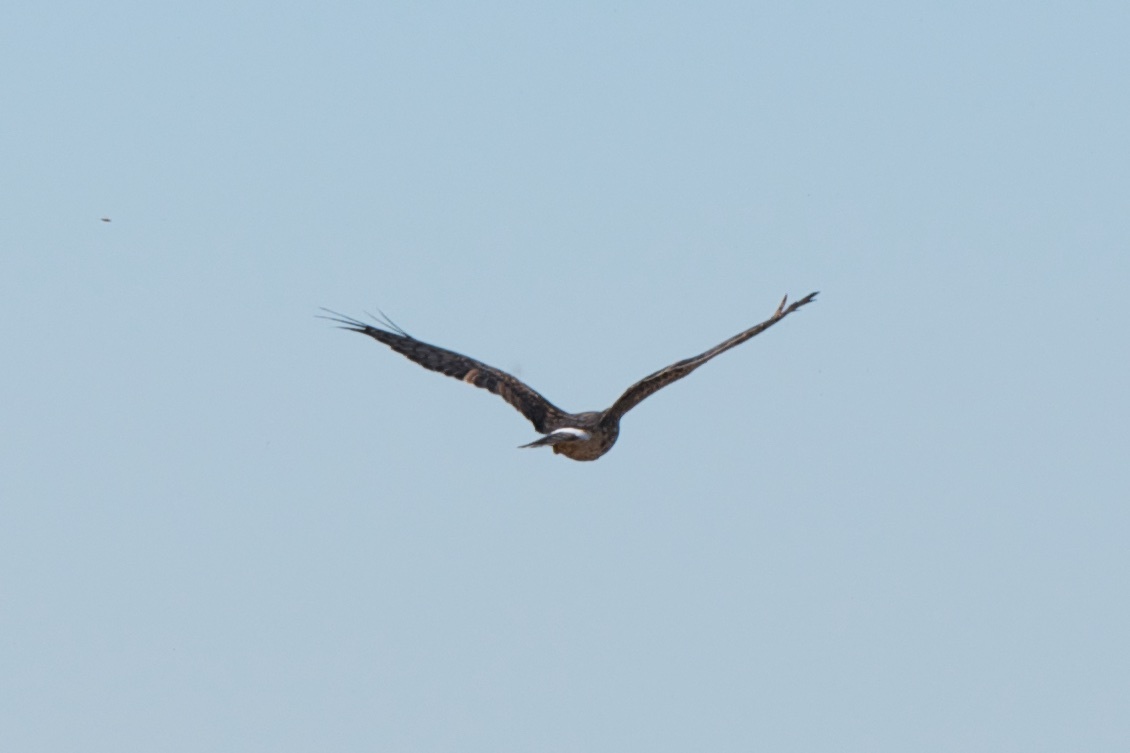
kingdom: Animalia
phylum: Chordata
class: Aves
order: Accipitriformes
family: Accipitridae
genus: Circus
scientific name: Circus cyaneus
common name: Hen harrier
